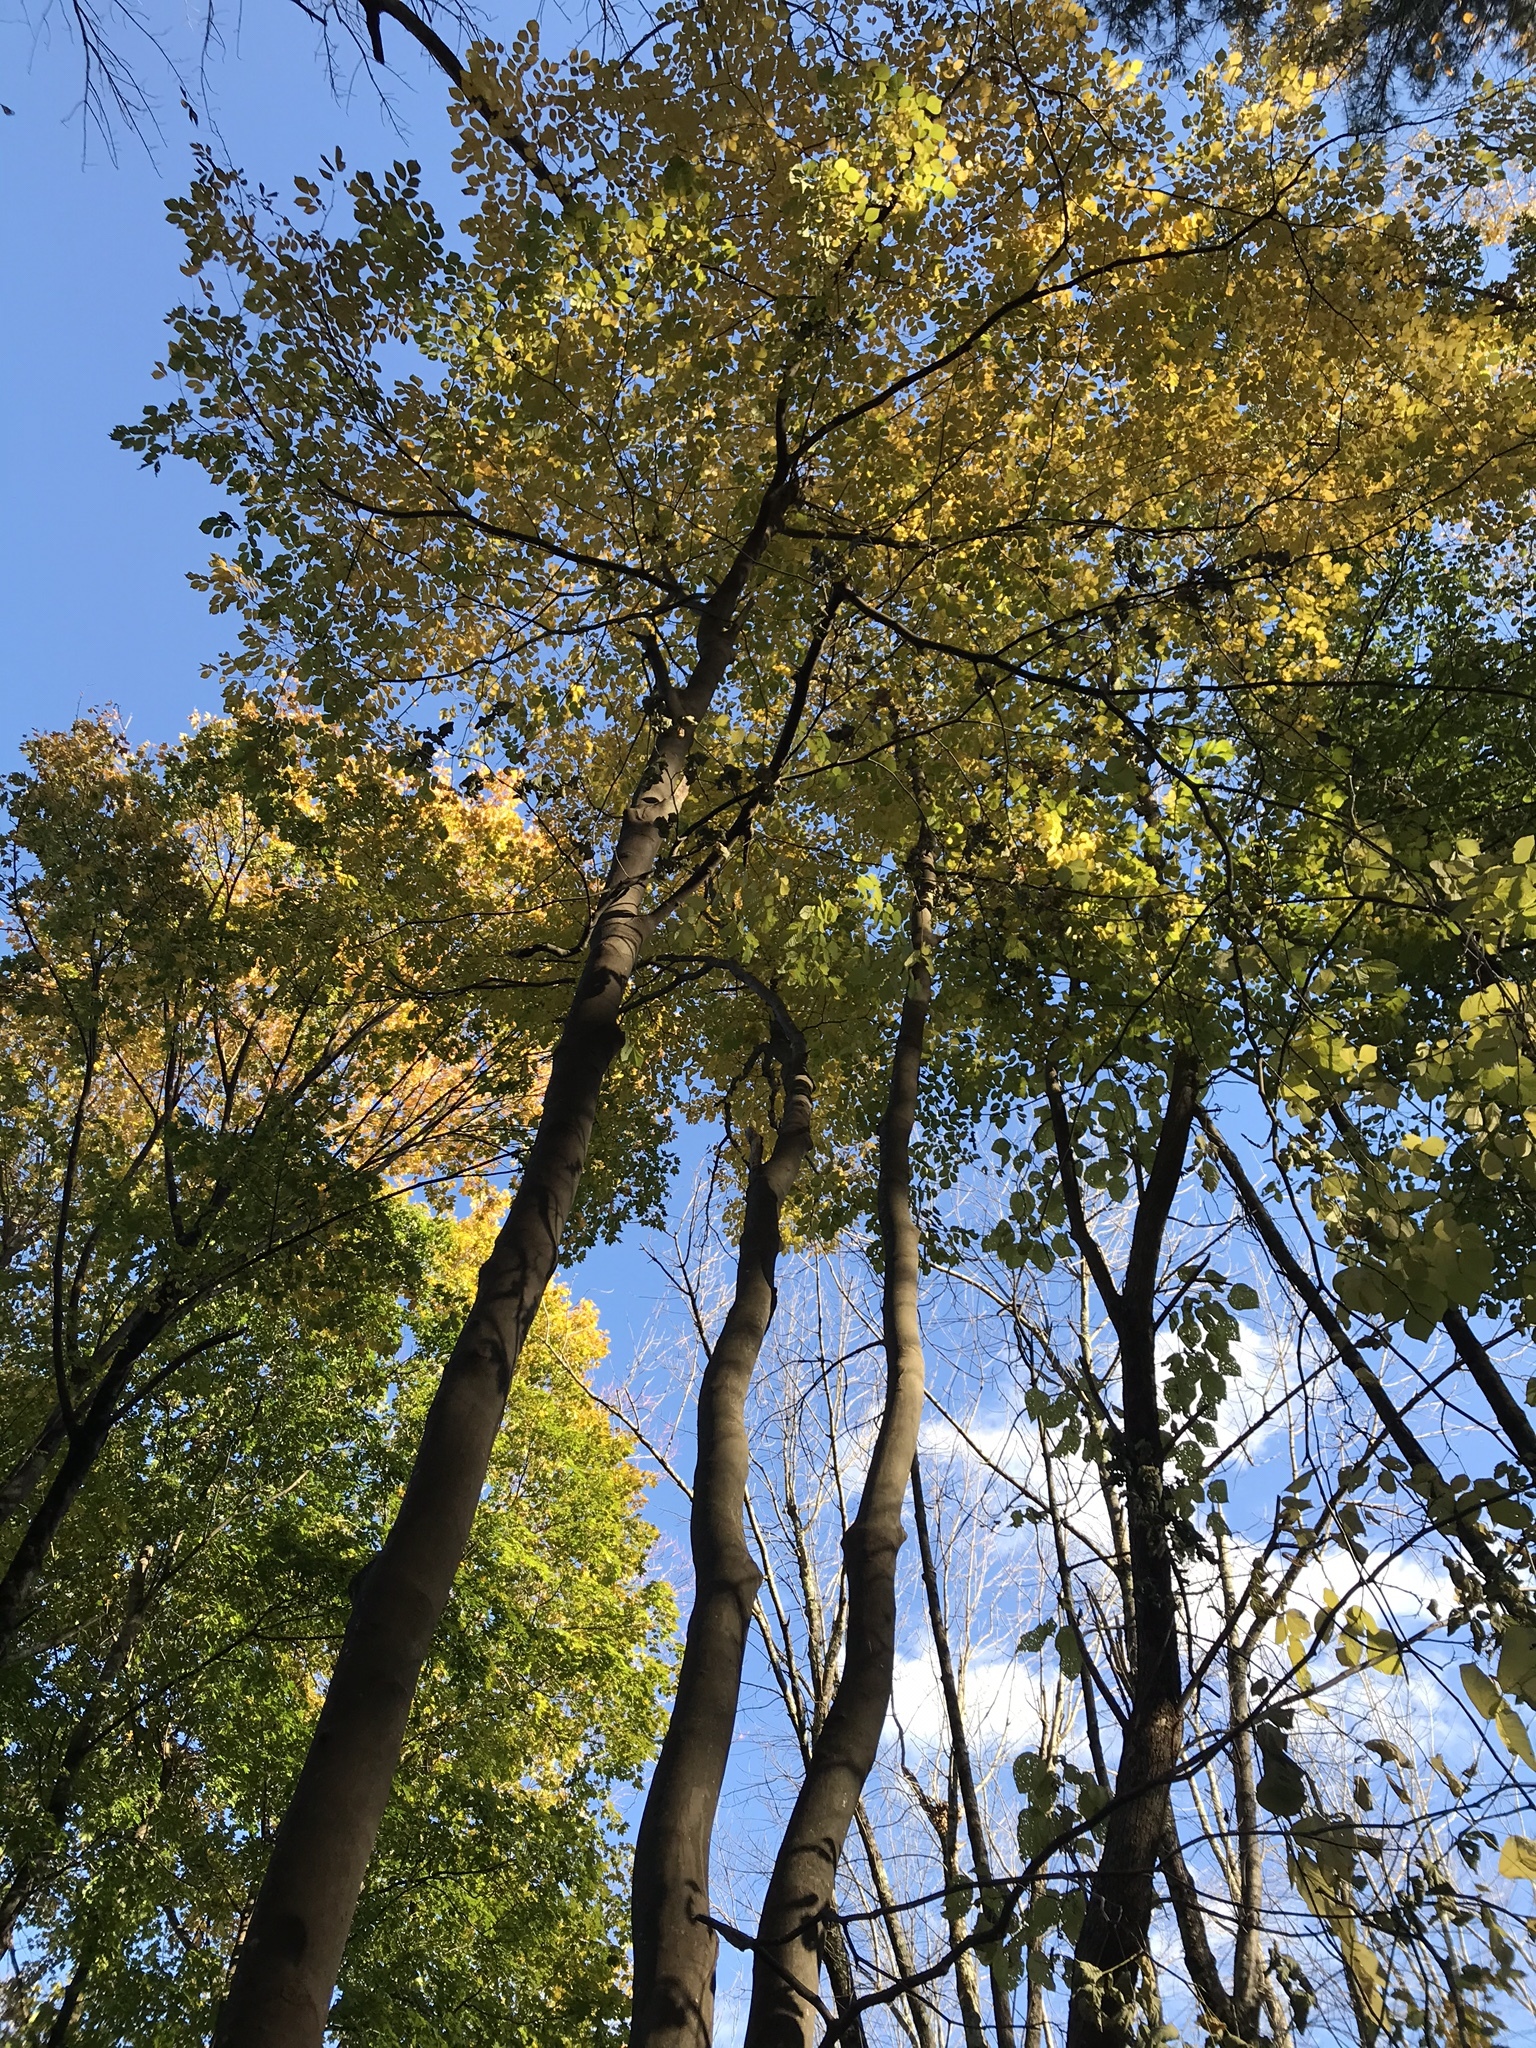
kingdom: Plantae
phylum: Tracheophyta
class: Magnoliopsida
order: Fabales
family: Fabaceae
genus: Cladrastis
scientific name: Cladrastis kentukea
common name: Kentucky yellow-wood
